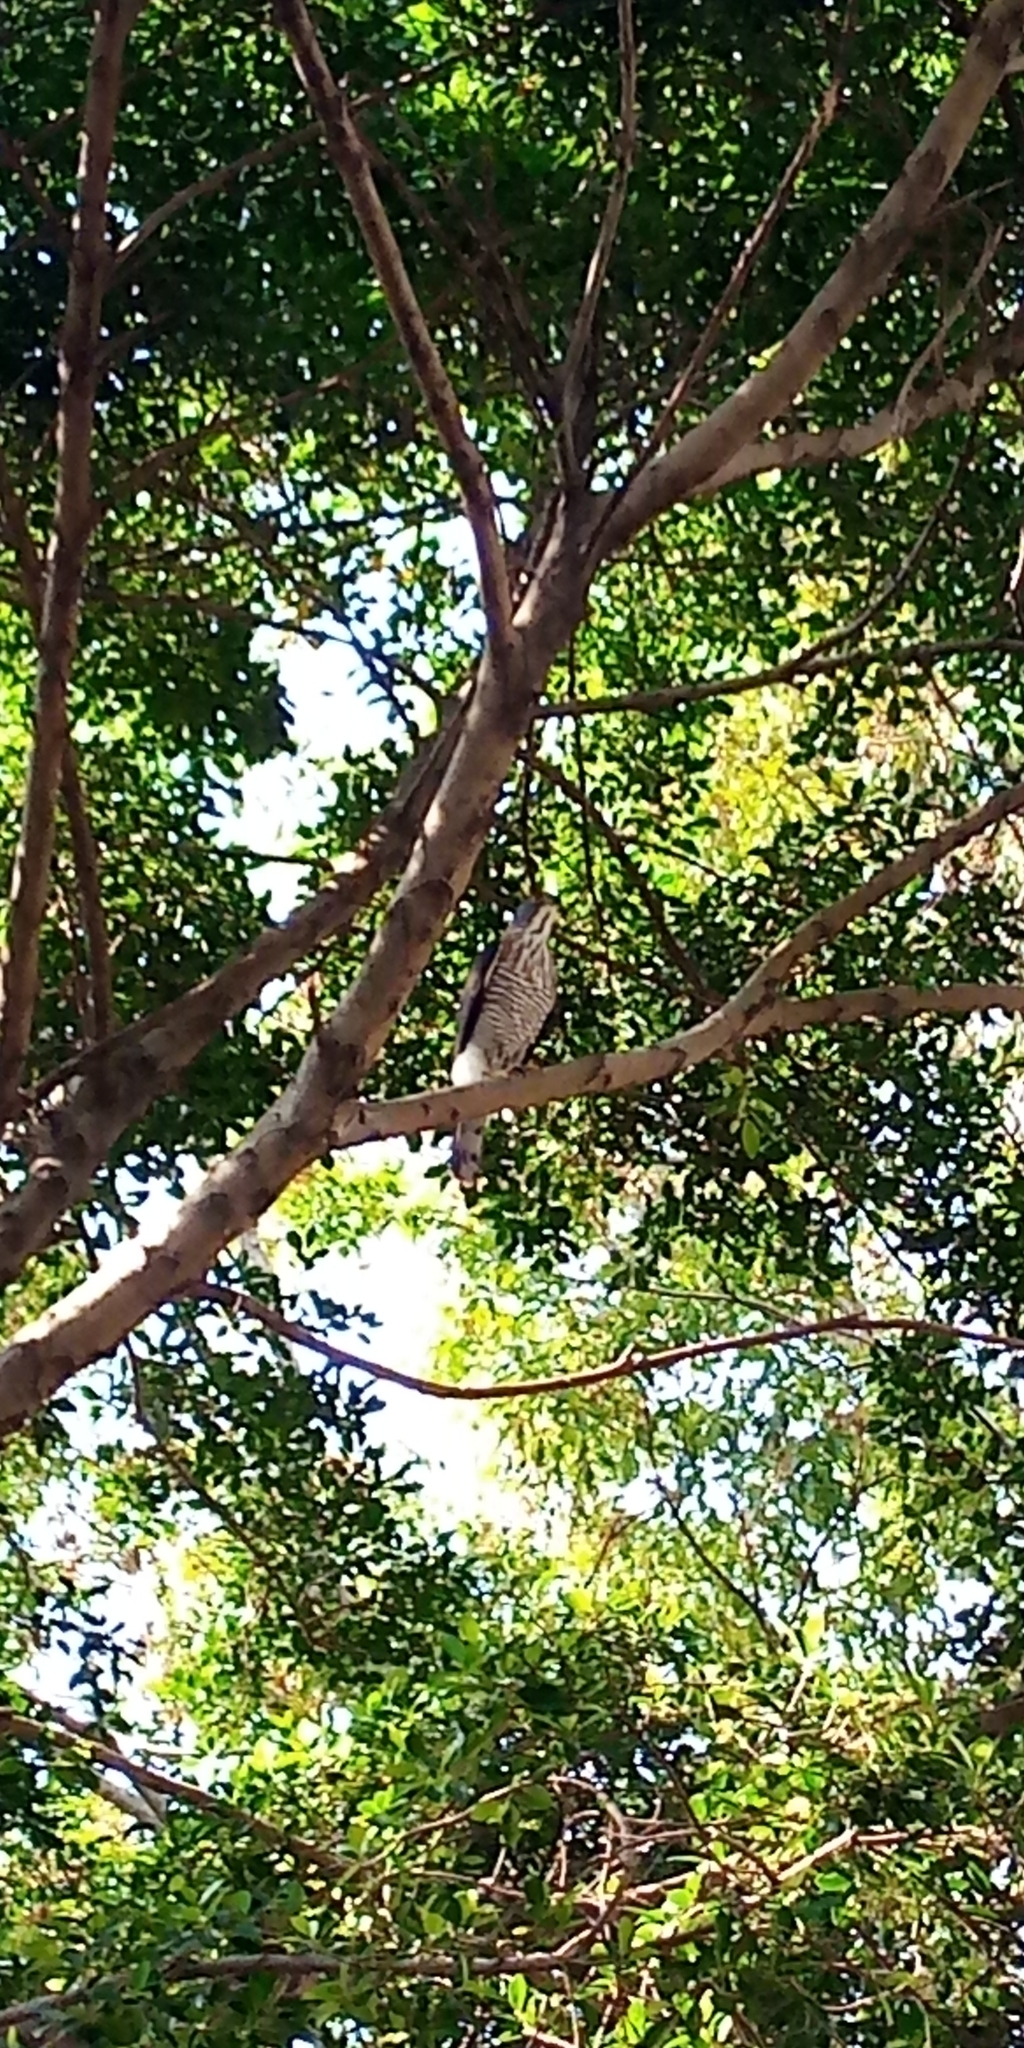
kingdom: Animalia
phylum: Chordata
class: Aves
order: Accipitriformes
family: Accipitridae
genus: Accipiter
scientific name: Accipiter trivirgatus
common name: Crested goshawk
